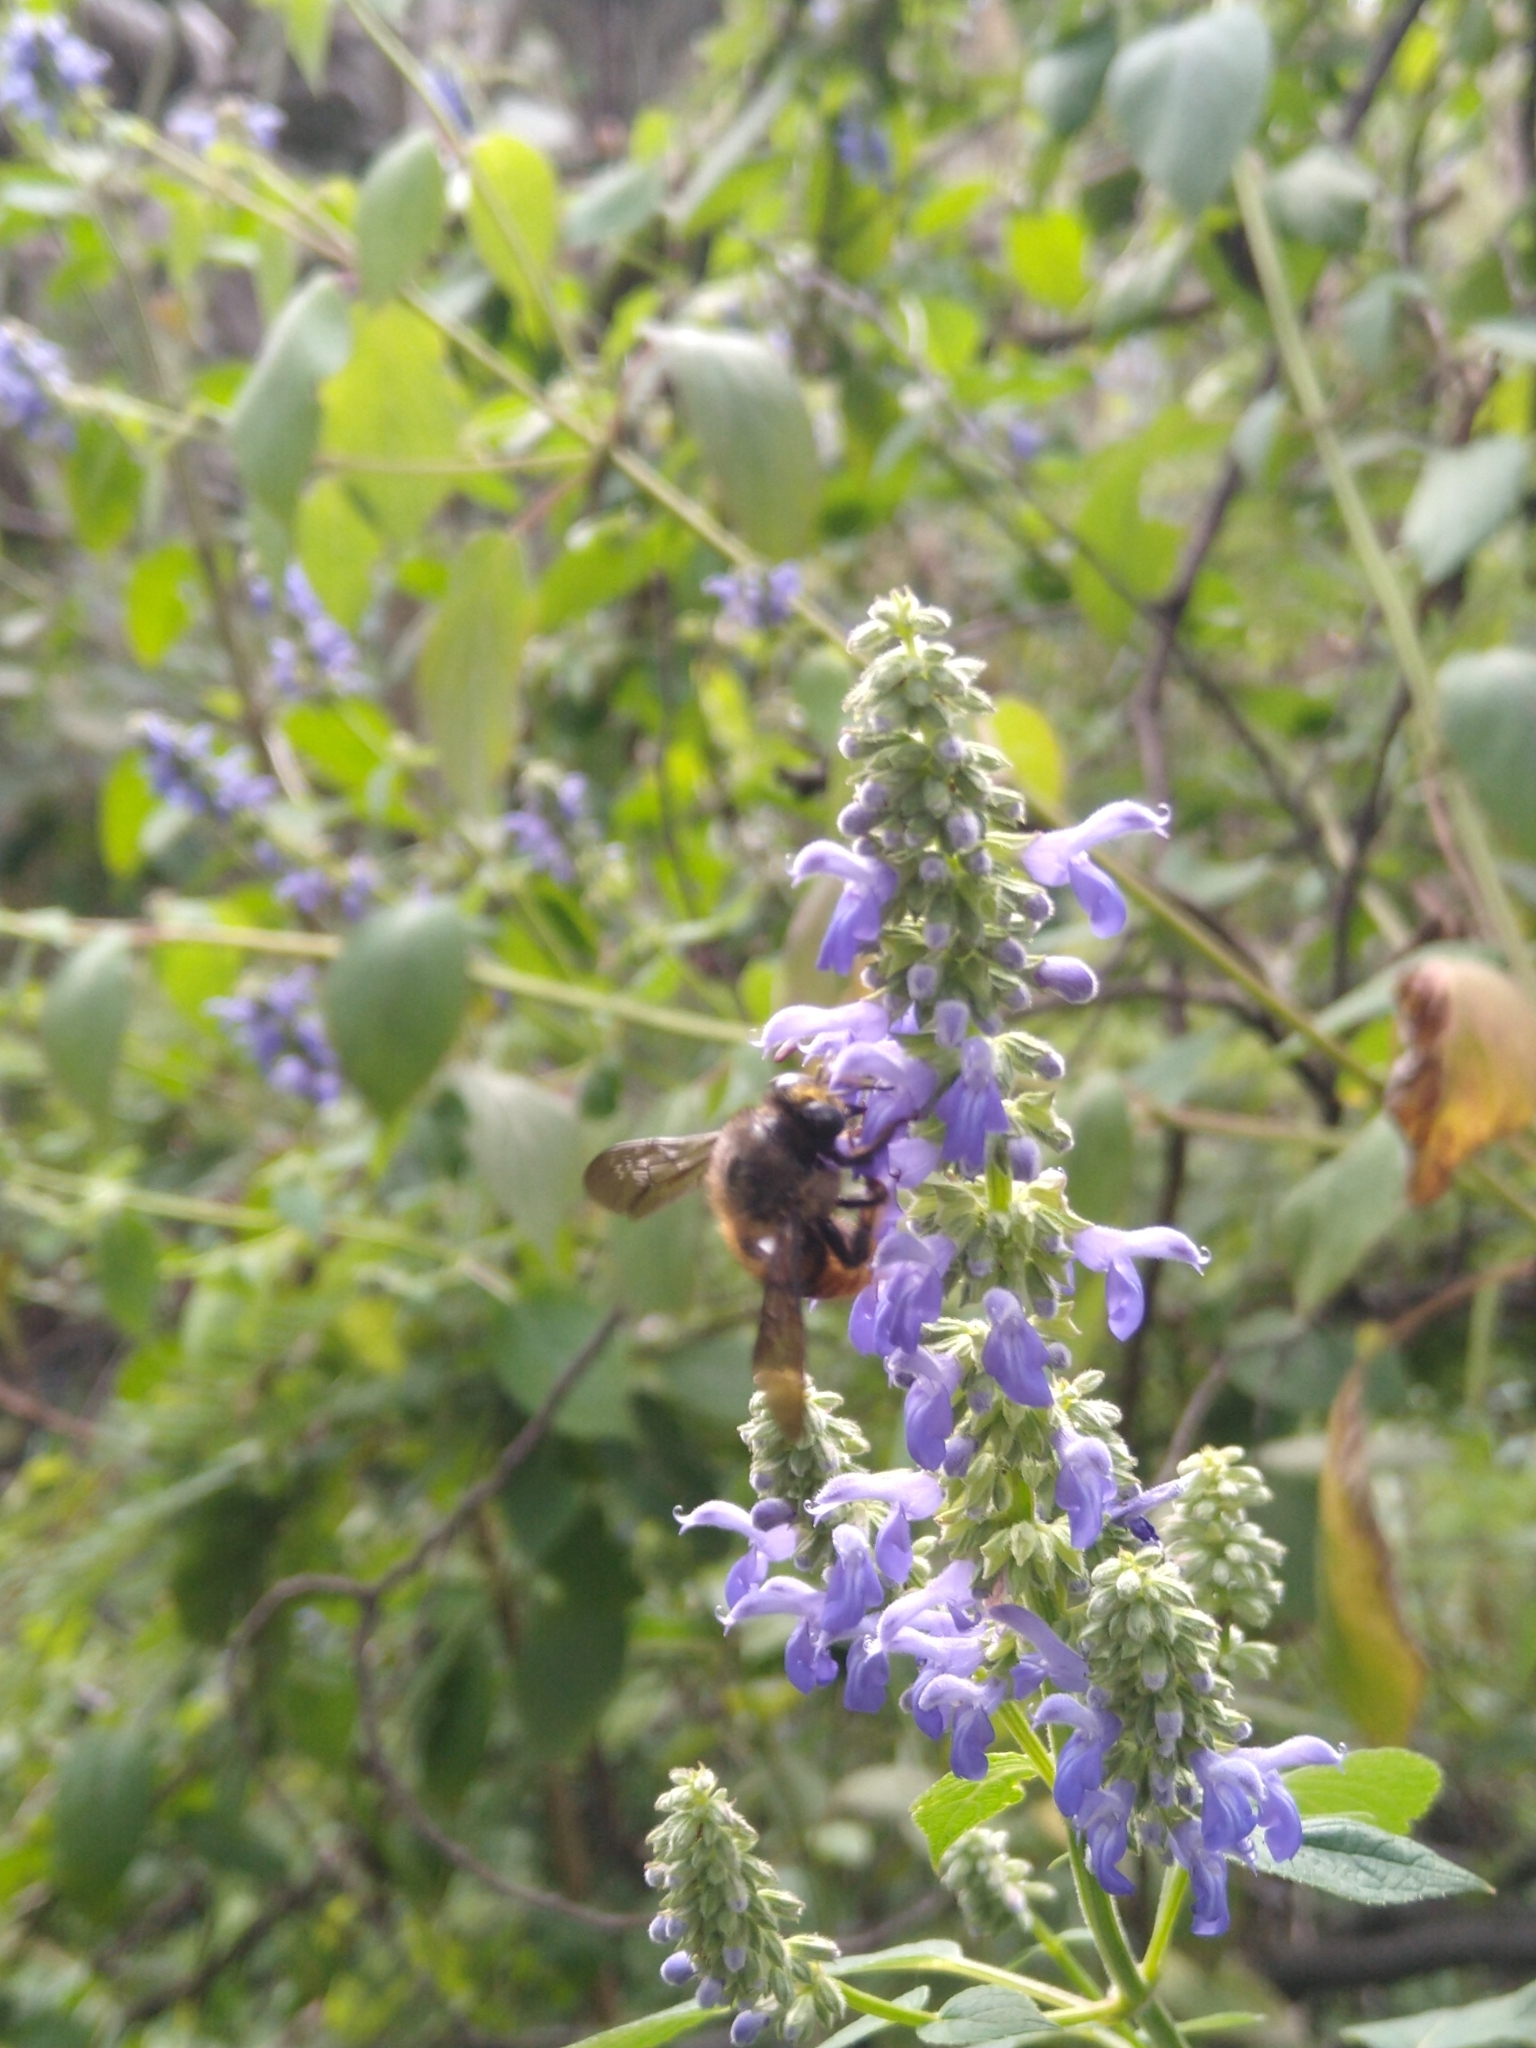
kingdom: Animalia
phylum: Arthropoda
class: Insecta
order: Hymenoptera
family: Apidae
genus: Xylocopa
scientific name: Xylocopa tabaniformis
